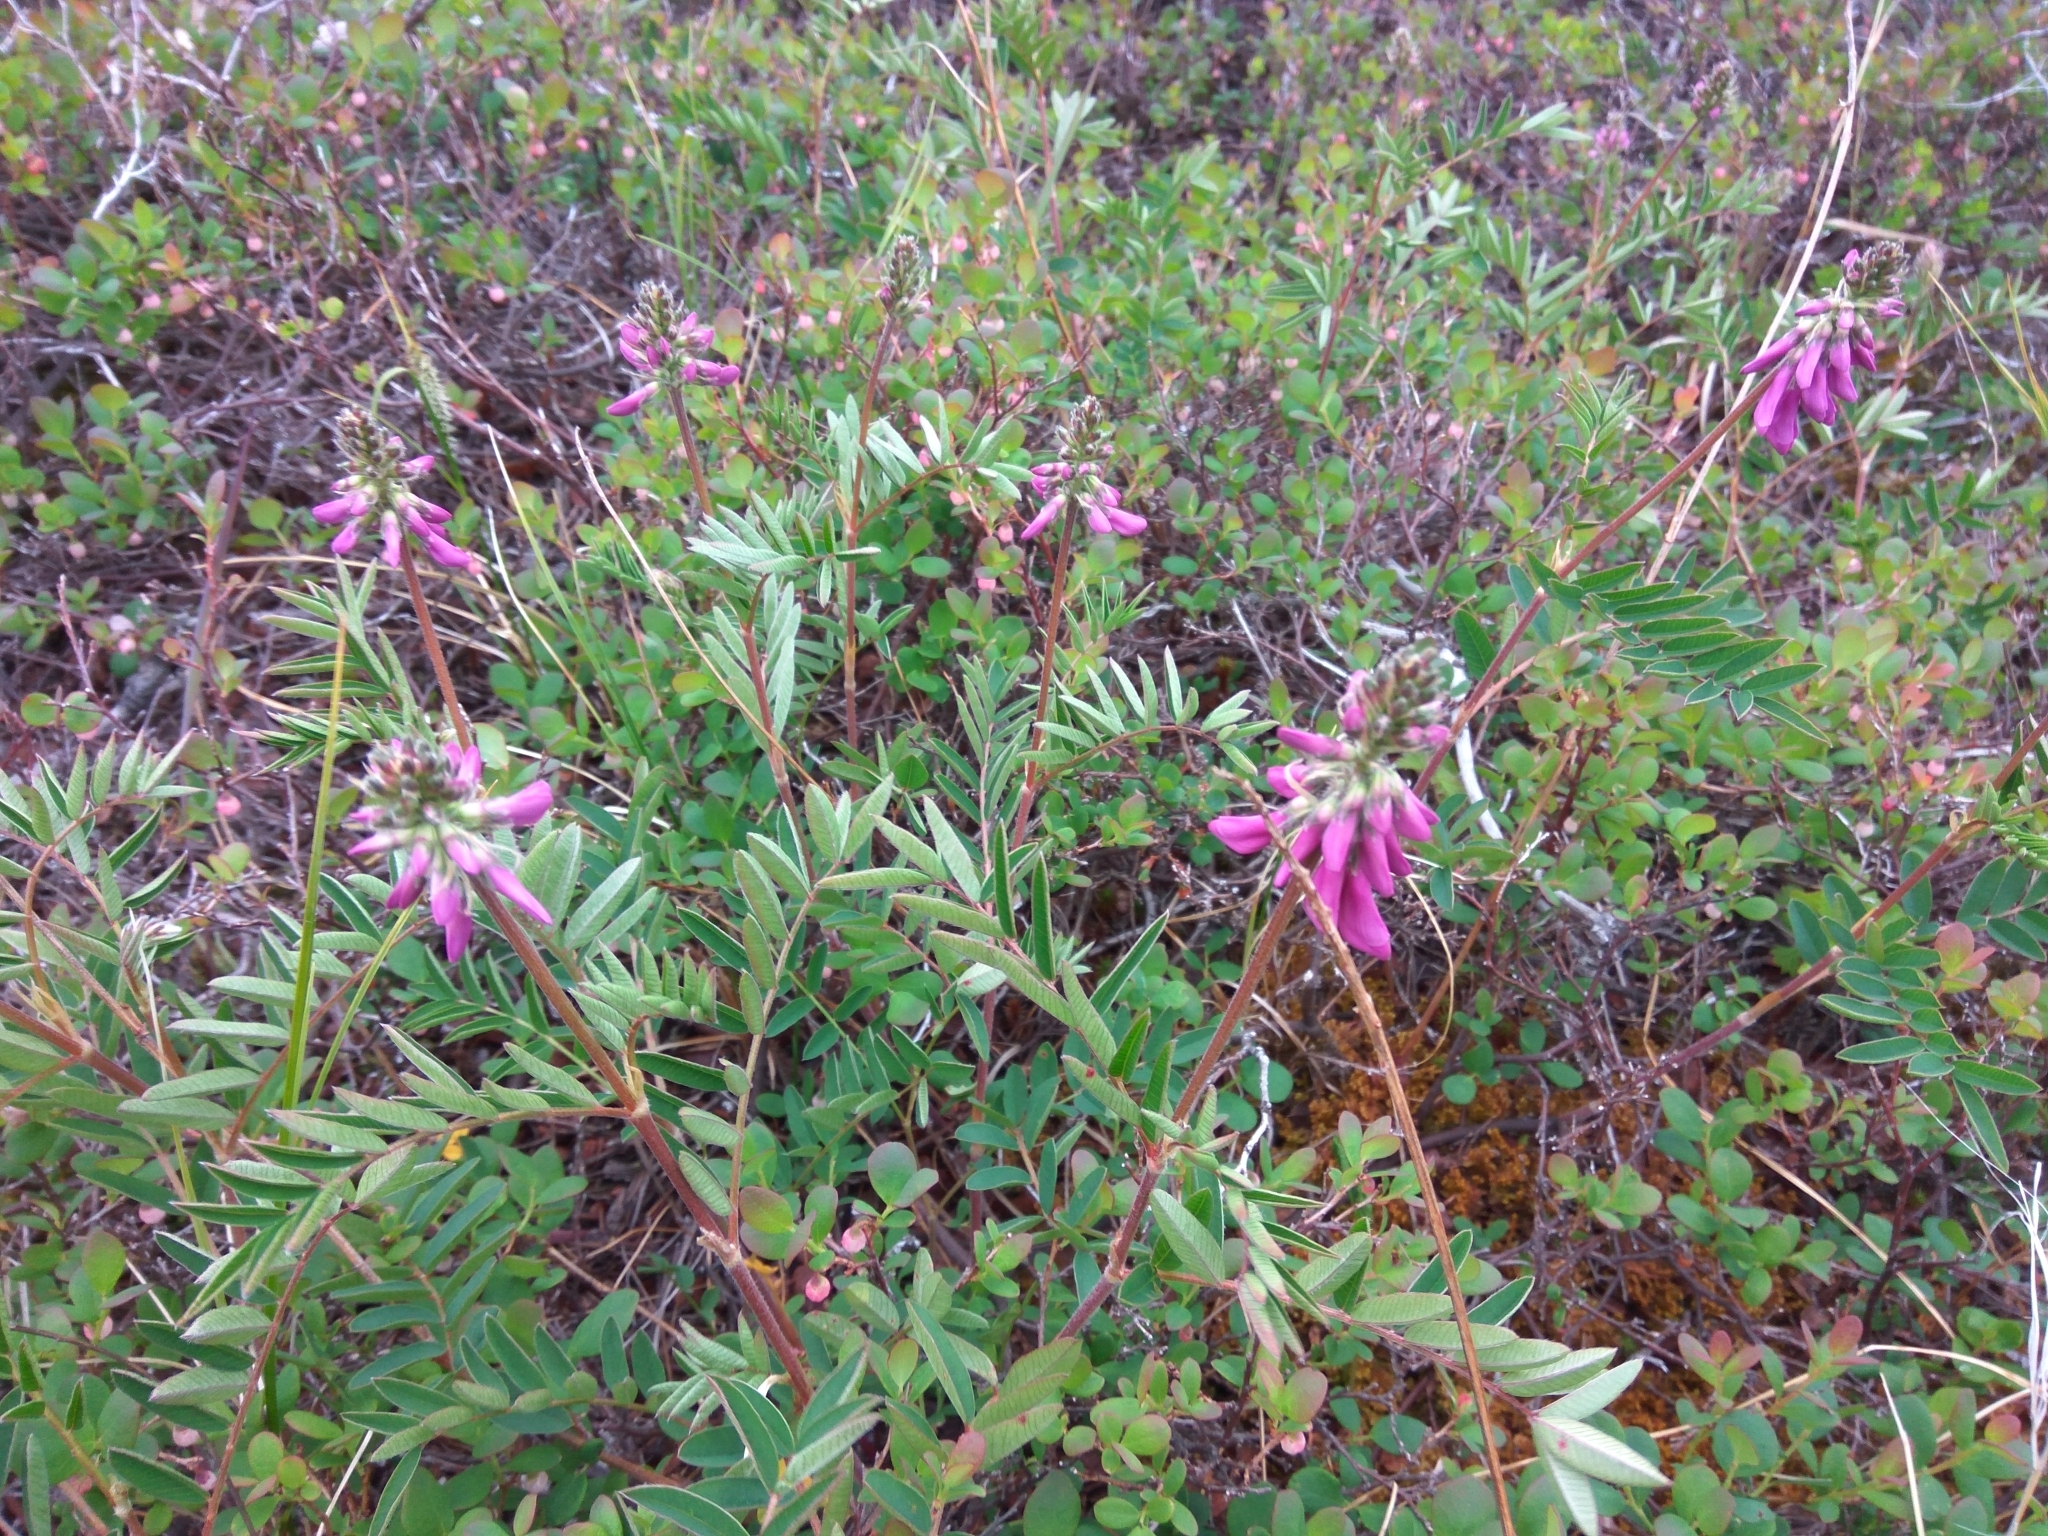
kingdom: Plantae
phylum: Tracheophyta
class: Magnoliopsida
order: Fabales
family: Fabaceae
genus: Hedysarum
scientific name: Hedysarum hedysaroides
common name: Alpine french-honeysuckle
